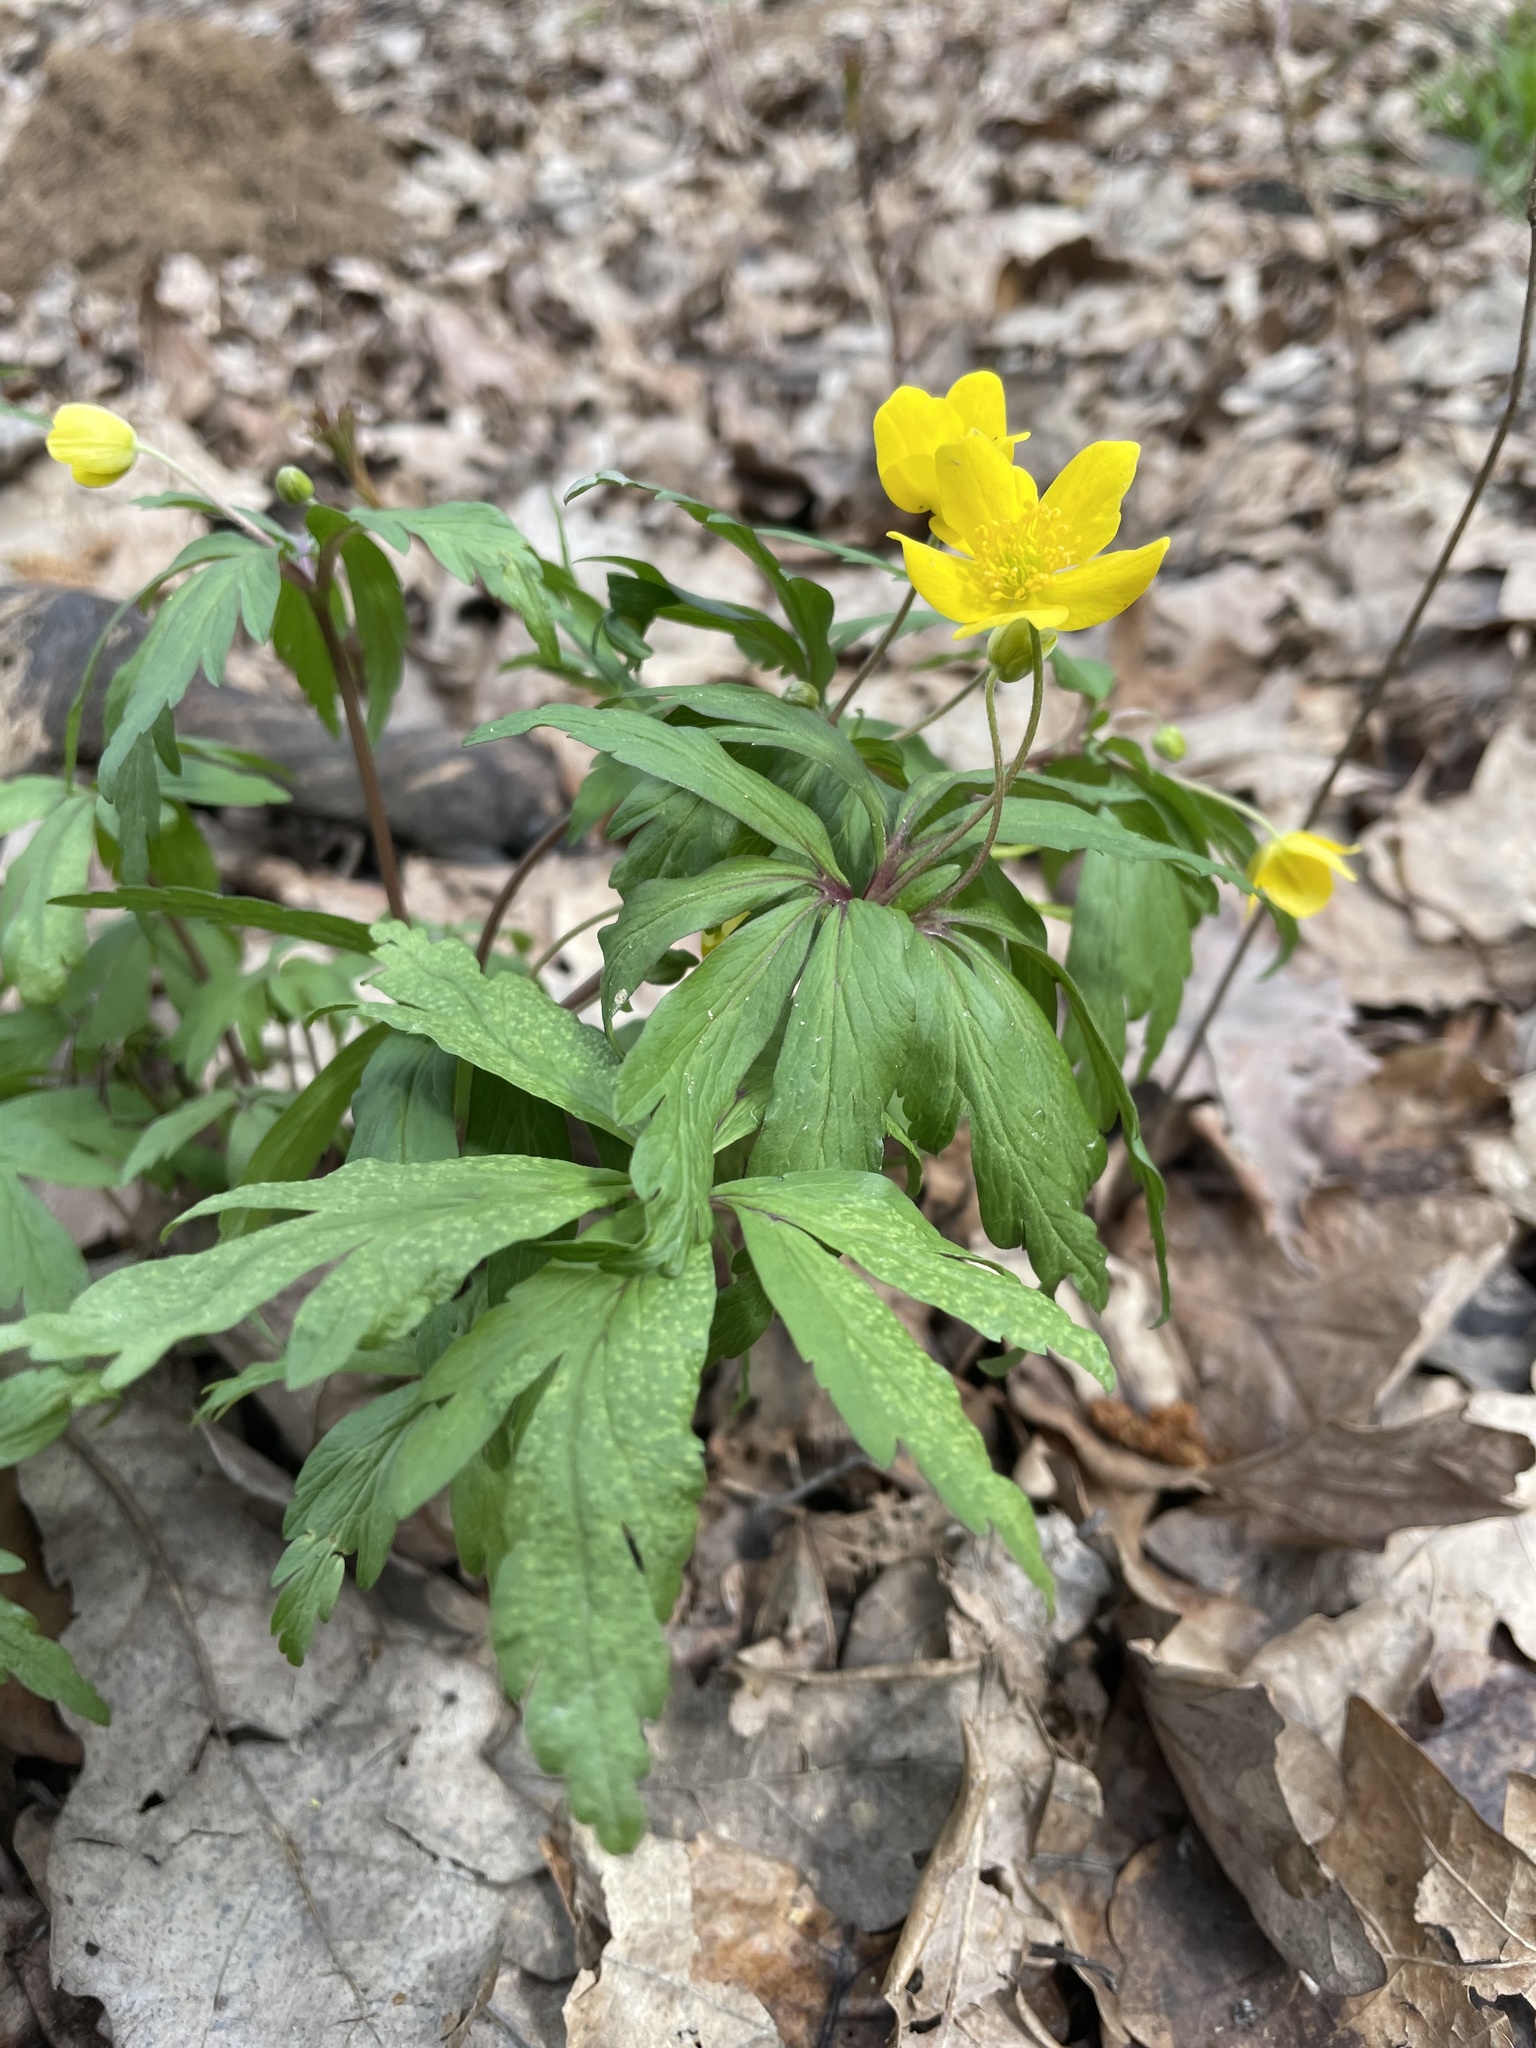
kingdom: Plantae
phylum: Tracheophyta
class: Magnoliopsida
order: Ranunculales
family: Ranunculaceae
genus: Anemone
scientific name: Anemone ranunculoides
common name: Yellow anemone
